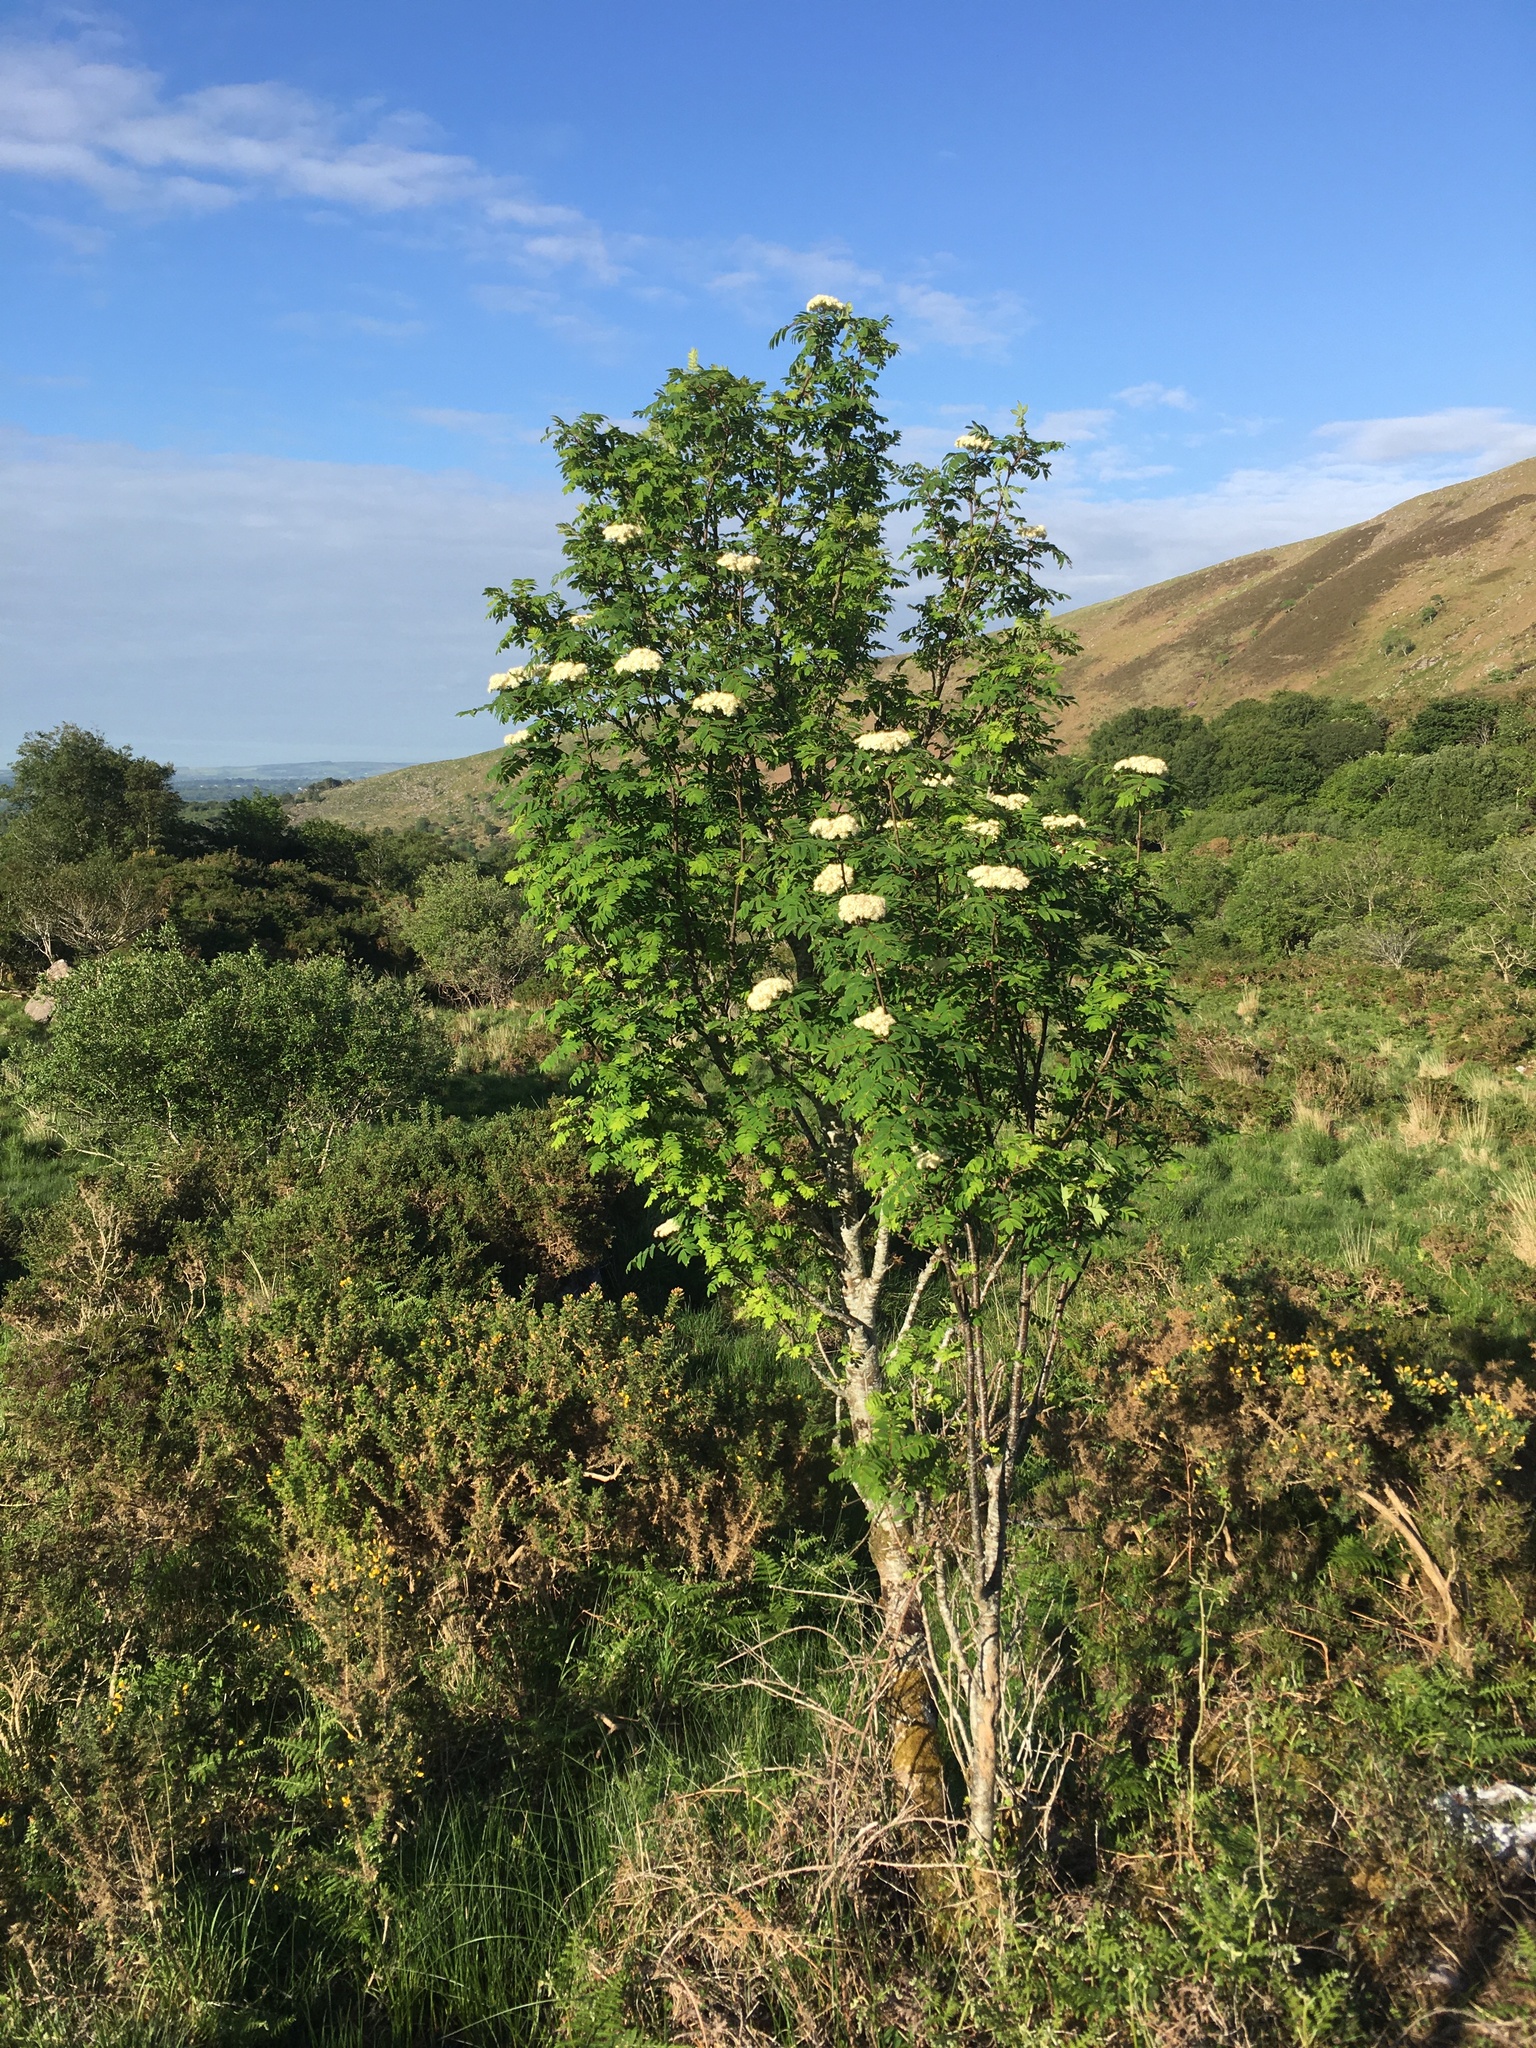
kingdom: Plantae
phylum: Tracheophyta
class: Magnoliopsida
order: Rosales
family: Rosaceae
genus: Sorbus
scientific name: Sorbus aucuparia
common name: Rowan
